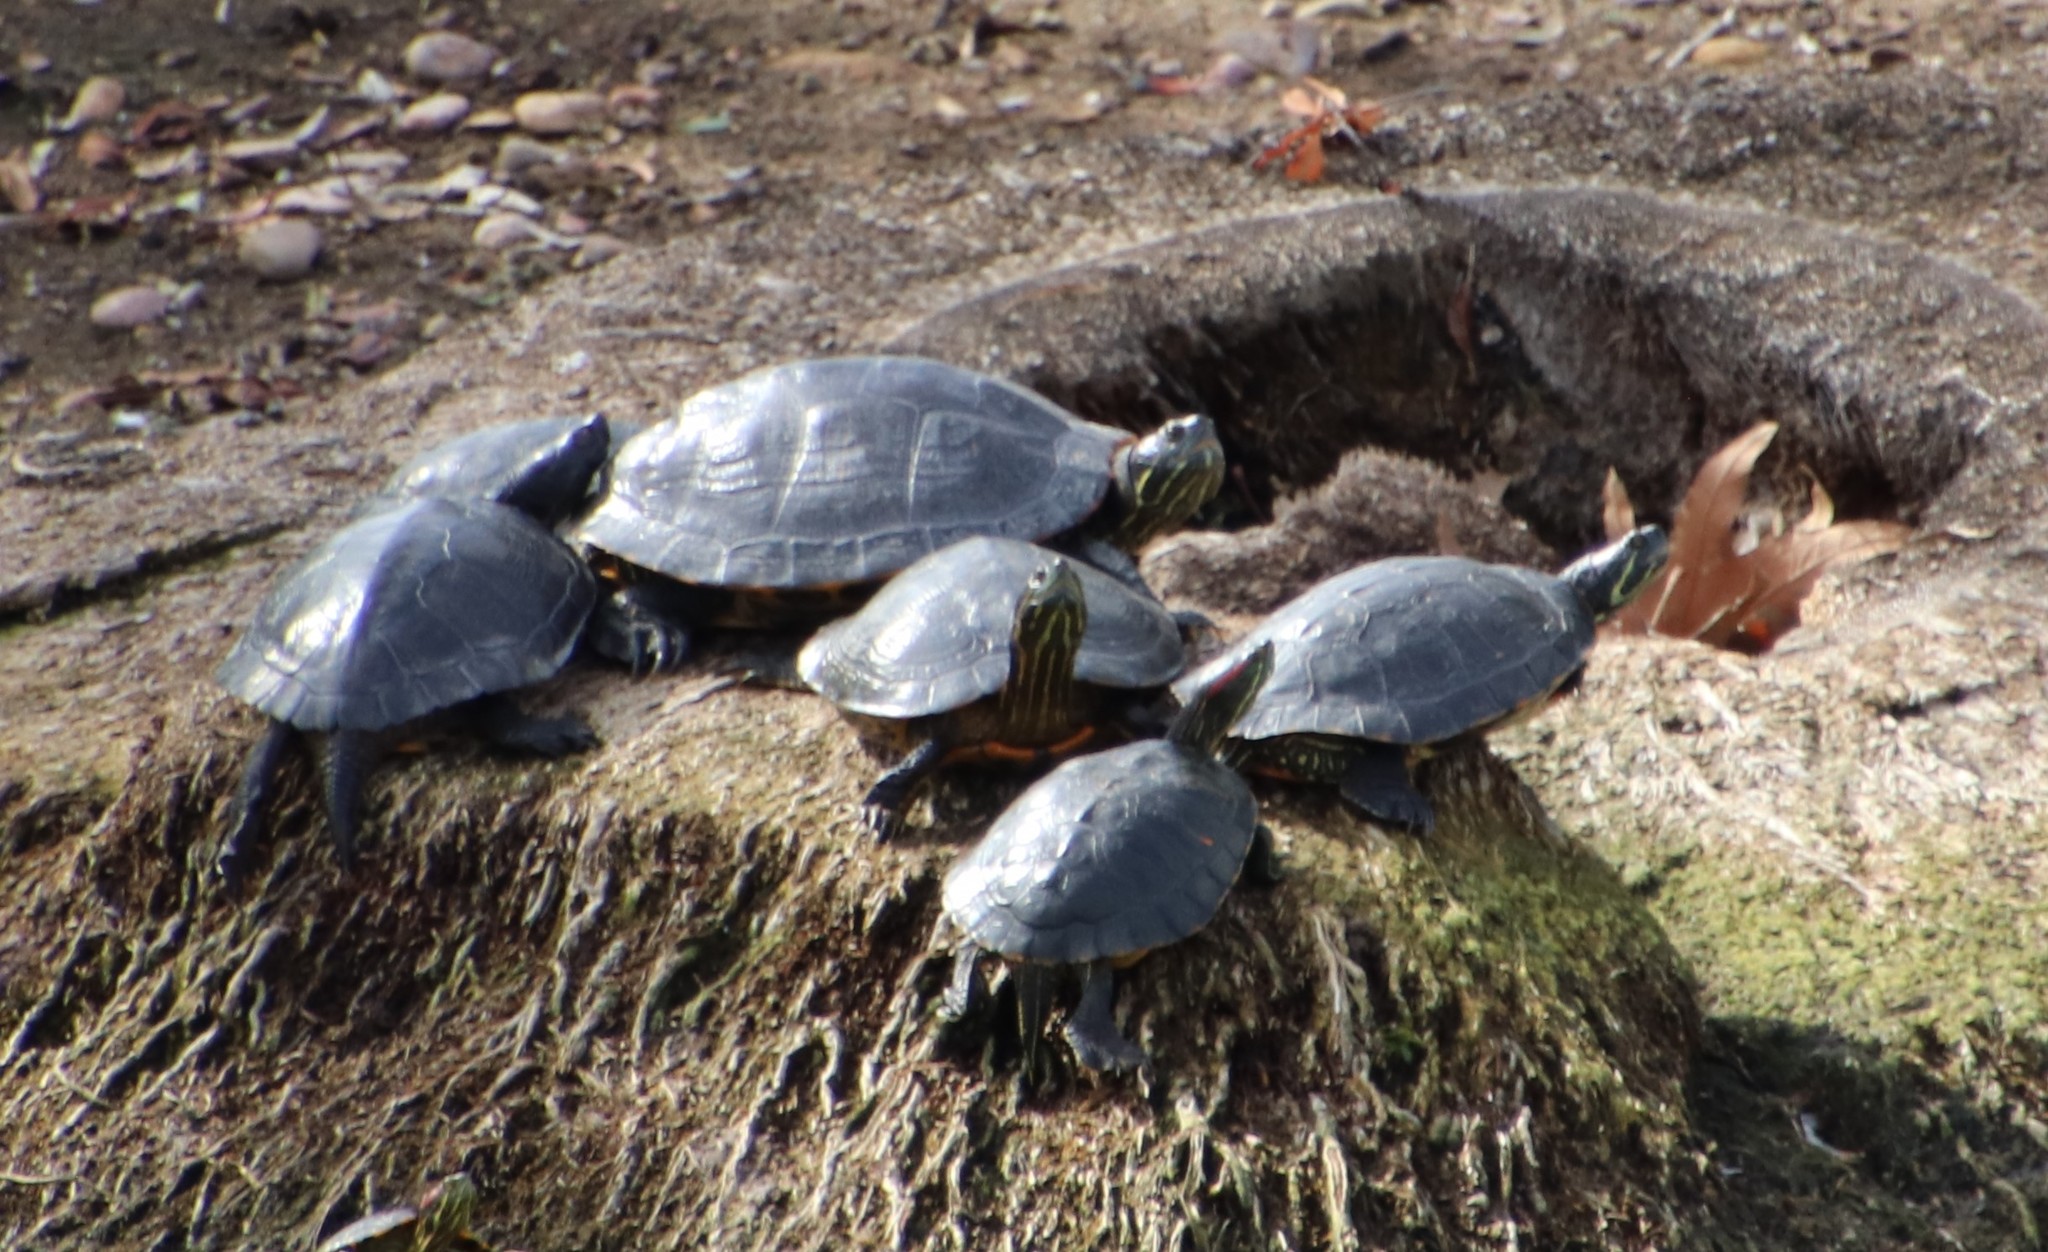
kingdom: Animalia
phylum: Chordata
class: Testudines
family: Emydidae
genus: Trachemys
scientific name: Trachemys scripta
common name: Slider
